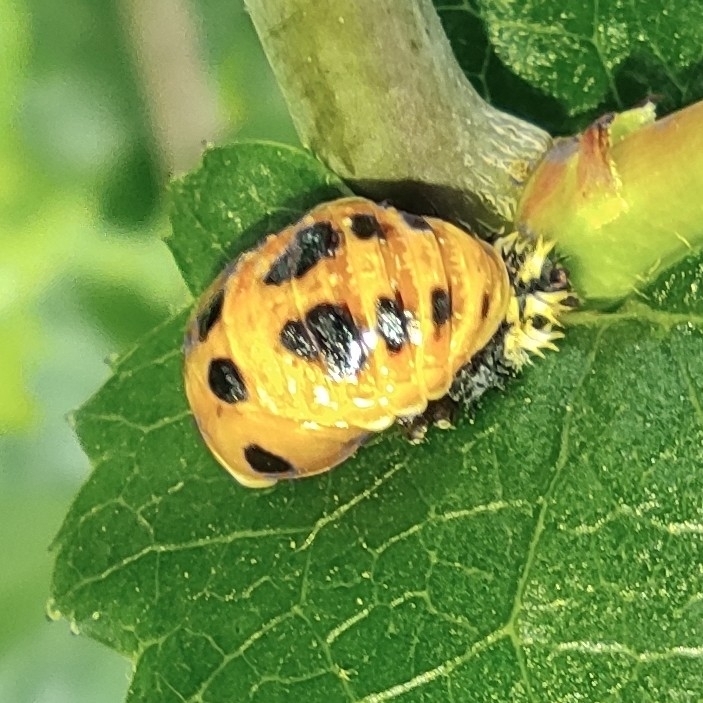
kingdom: Animalia
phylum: Arthropoda
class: Insecta
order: Coleoptera
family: Coccinellidae
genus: Harmonia
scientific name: Harmonia axyridis
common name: Harlequin ladybird
